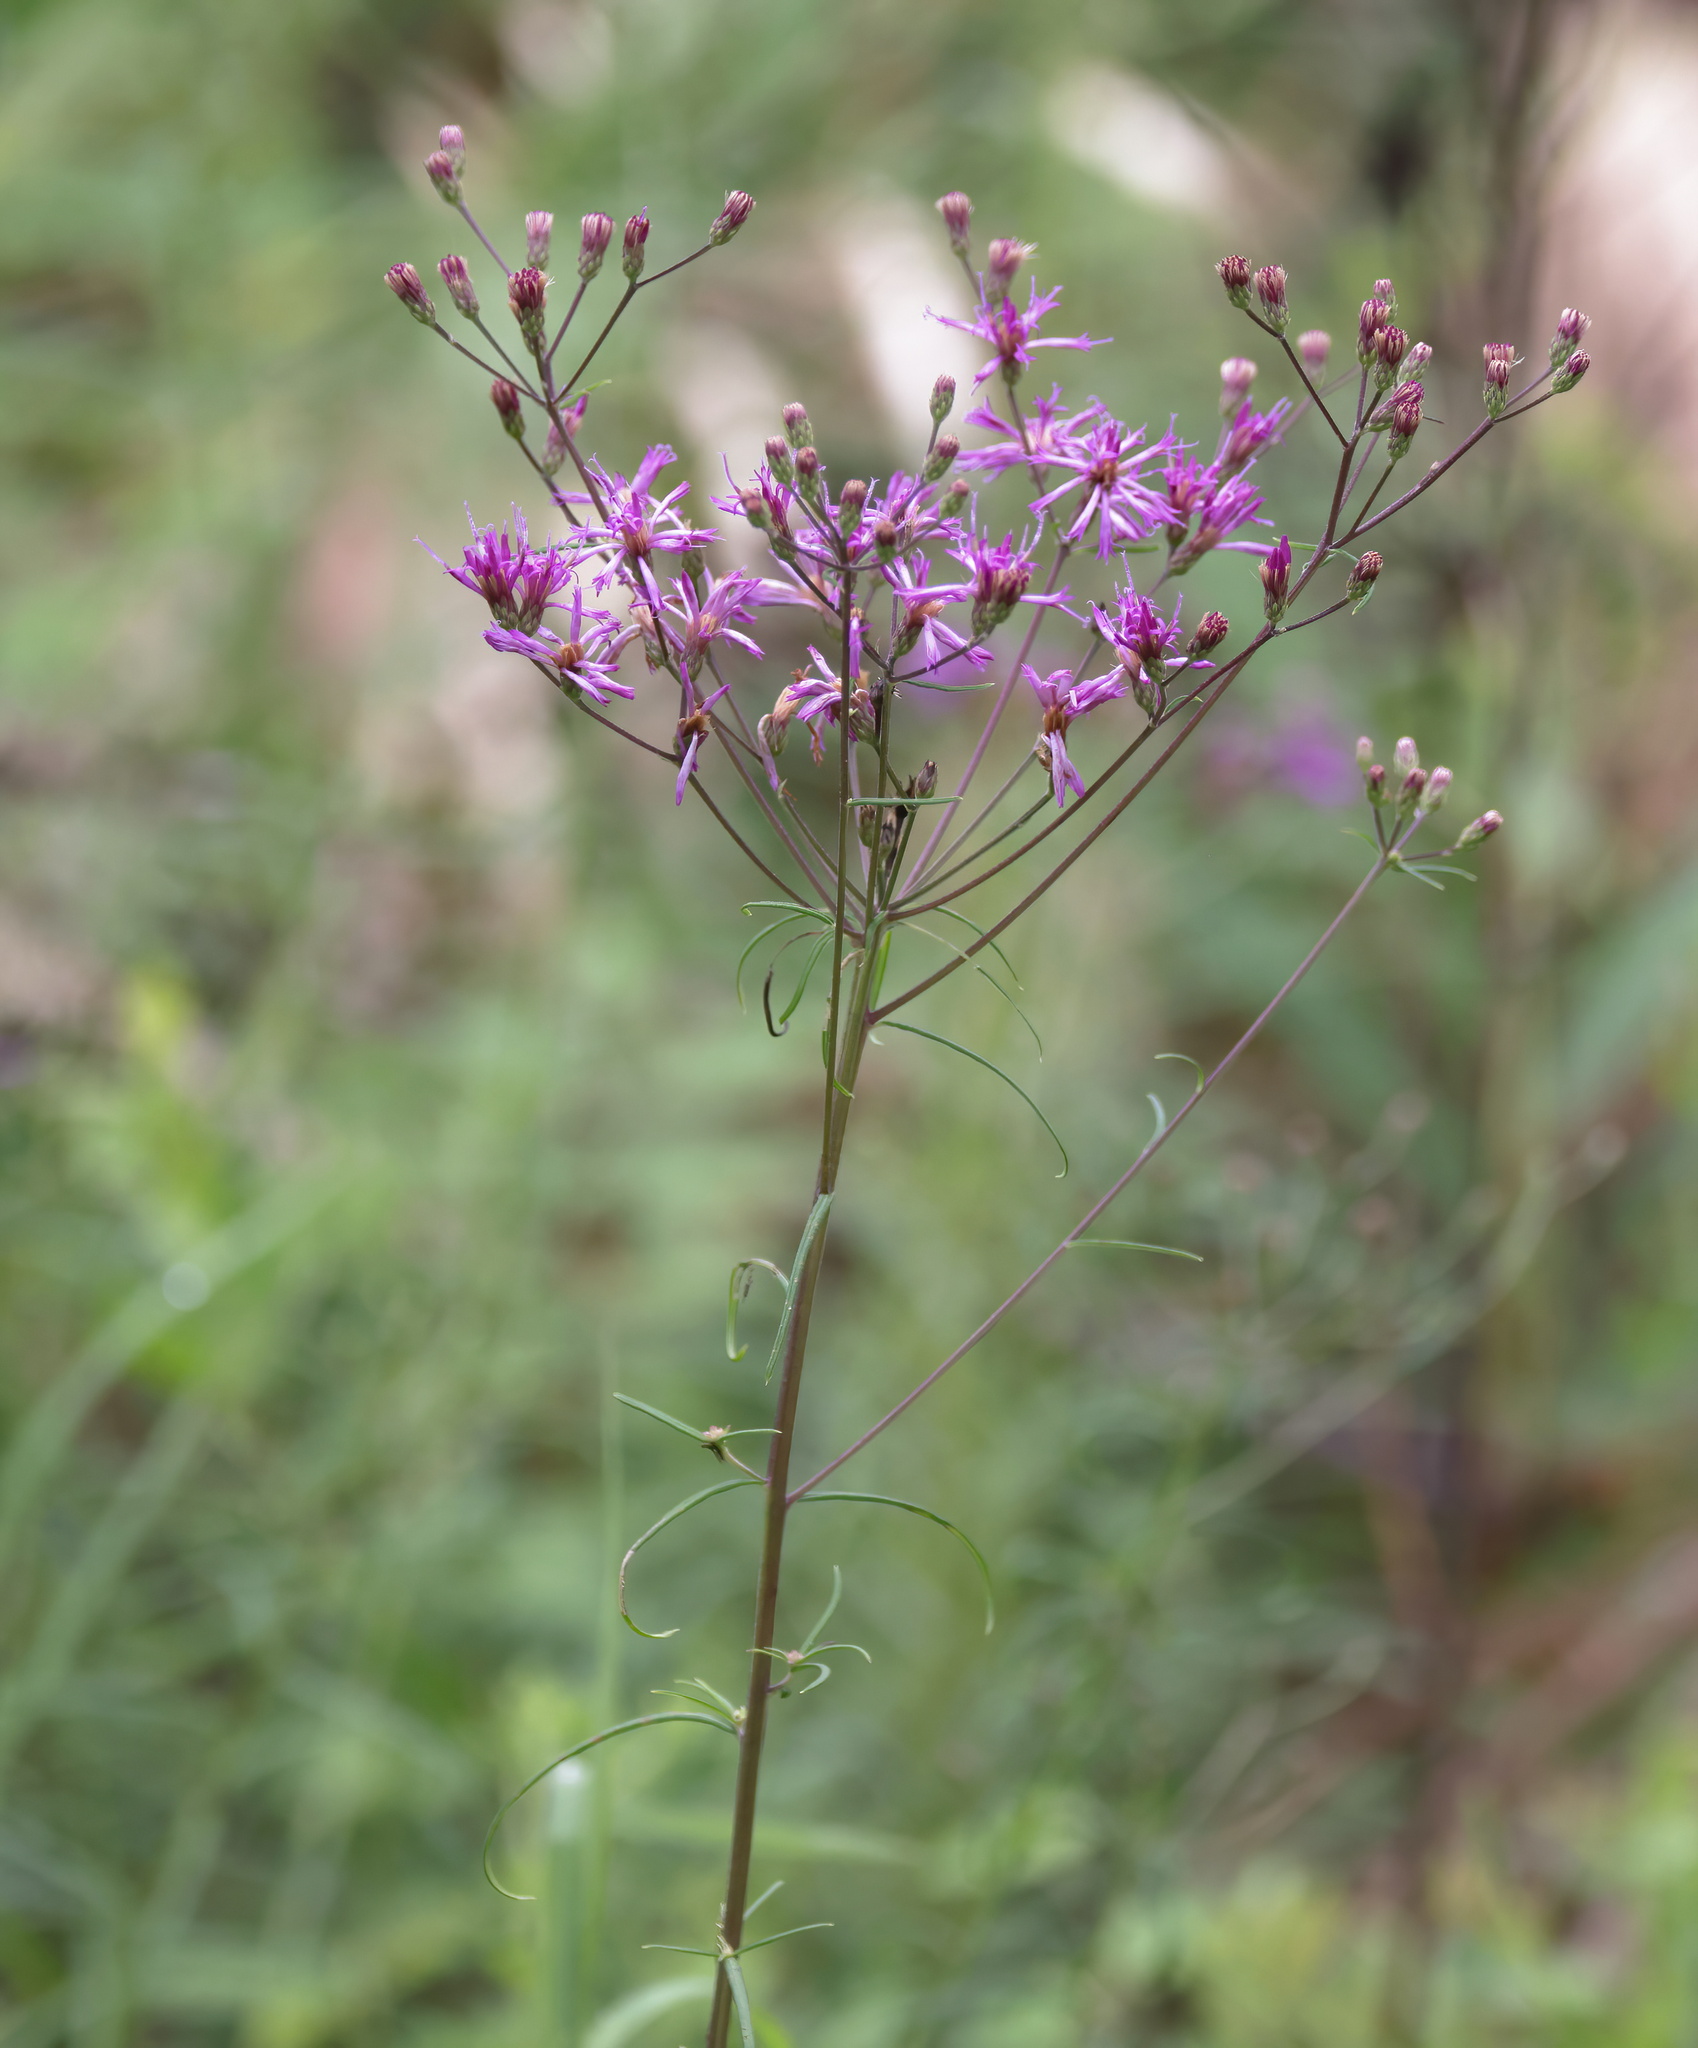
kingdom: Plantae
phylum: Tracheophyta
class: Magnoliopsida
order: Asterales
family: Asteraceae
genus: Vernonia
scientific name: Vernonia angustifolia
